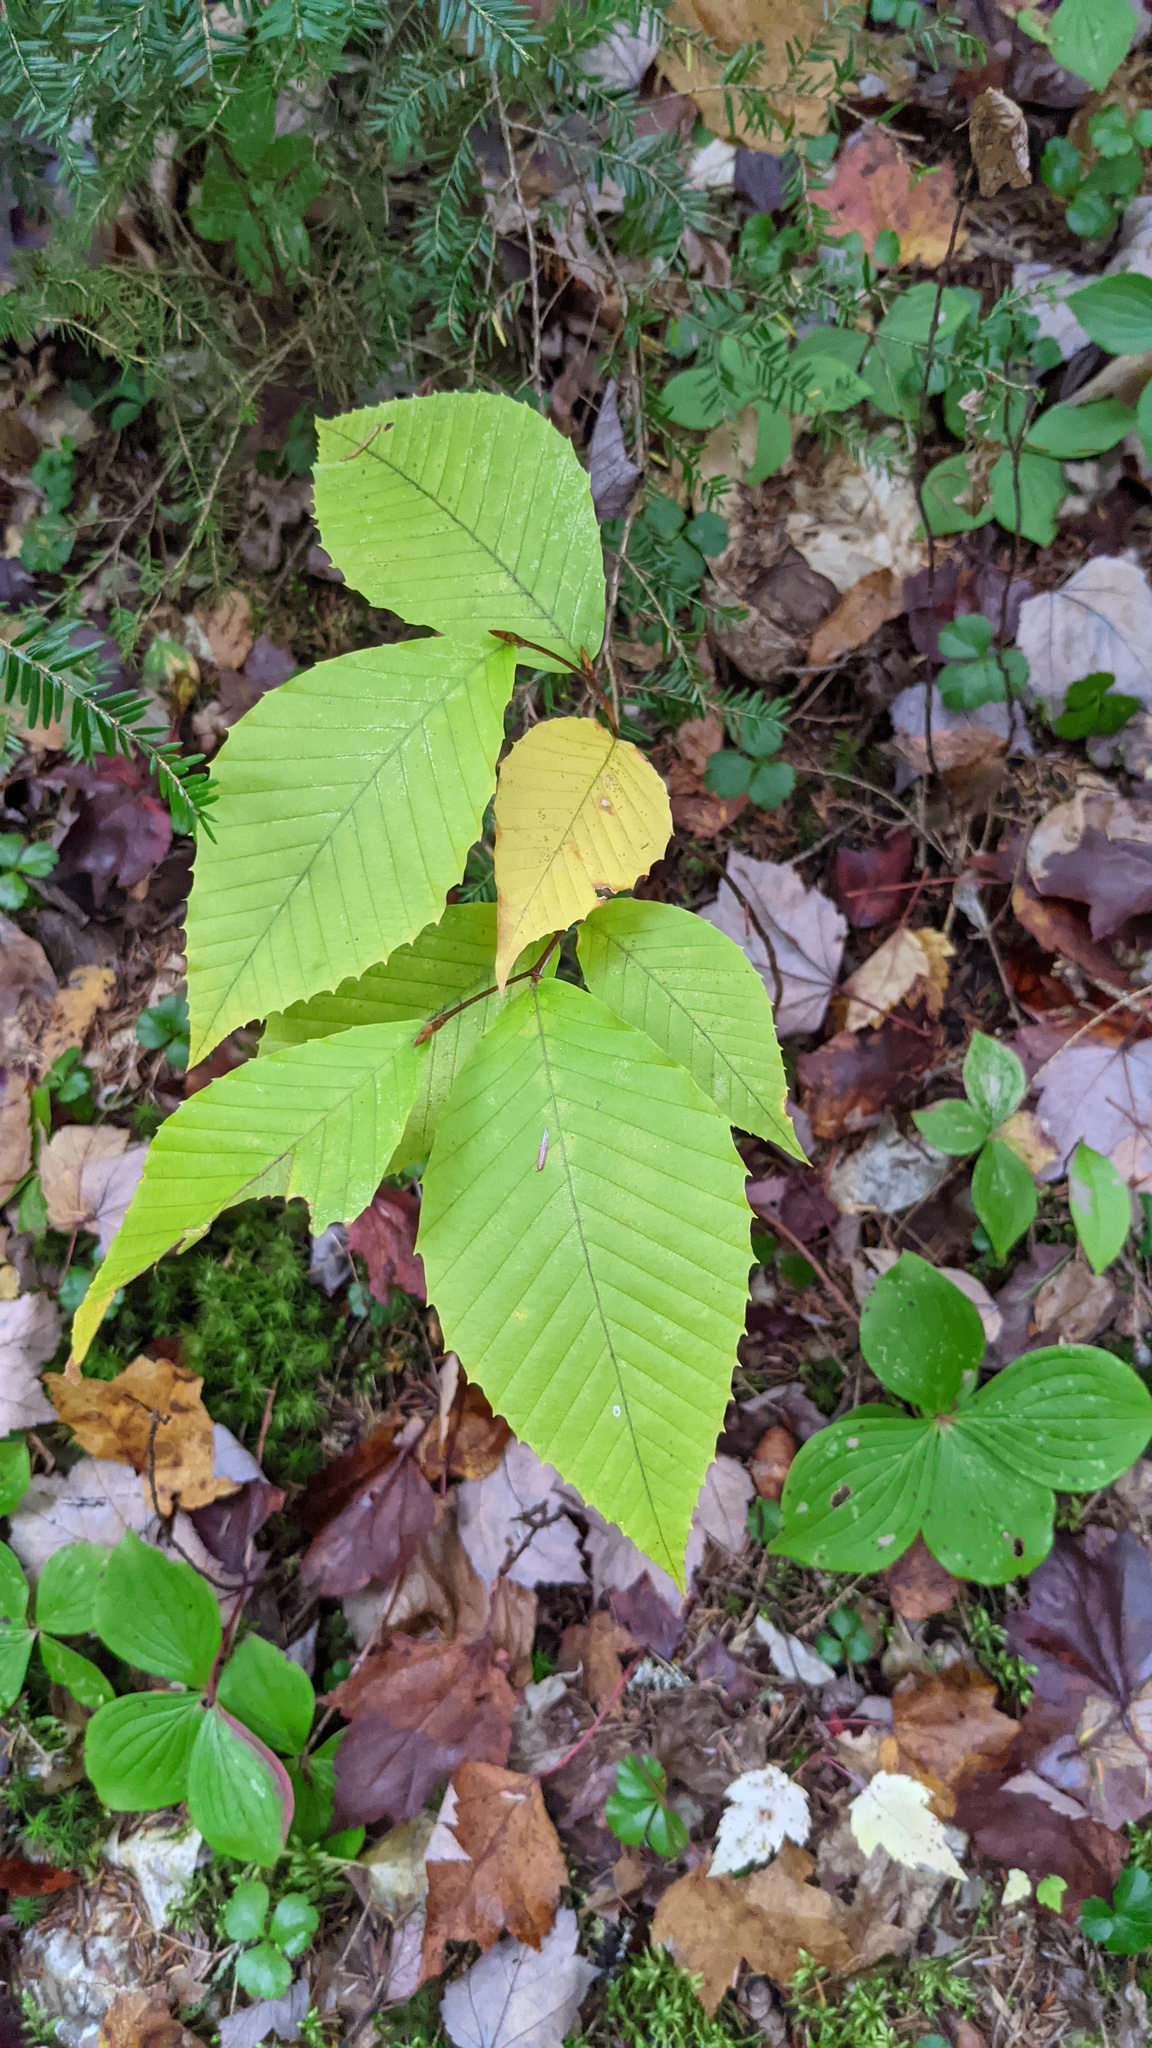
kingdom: Plantae
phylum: Tracheophyta
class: Magnoliopsida
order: Fagales
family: Fagaceae
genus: Fagus
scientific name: Fagus grandifolia
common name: American beech
